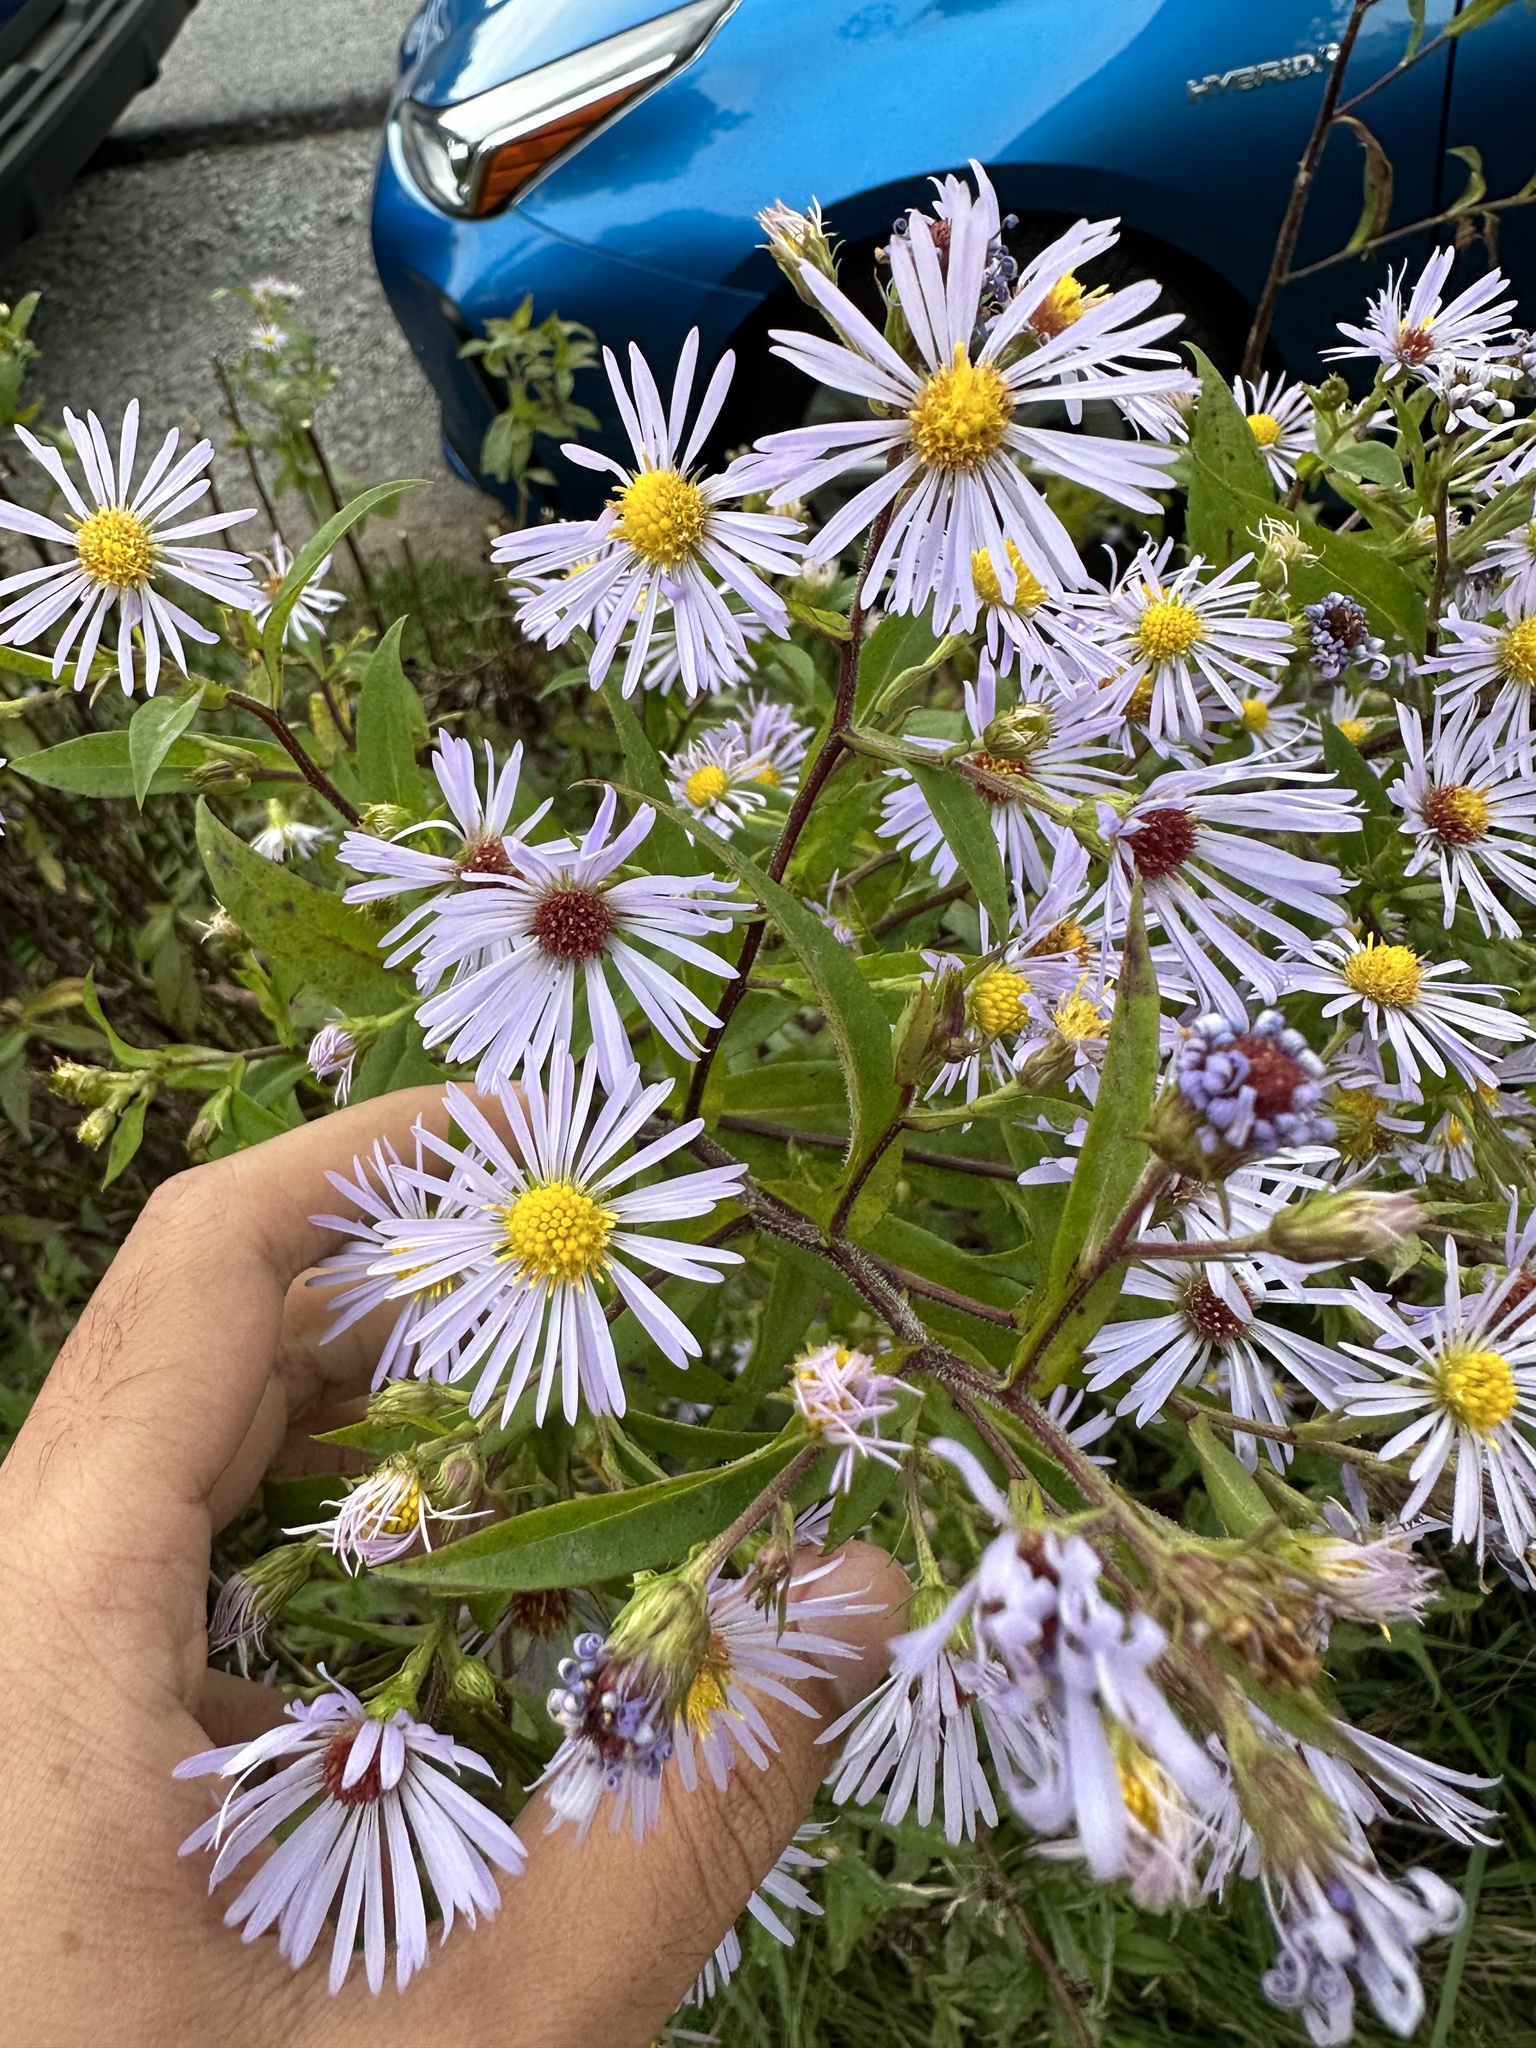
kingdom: Plantae
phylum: Tracheophyta
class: Magnoliopsida
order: Asterales
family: Asteraceae
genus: Symphyotrichum
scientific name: Symphyotrichum puniceum
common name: Bog aster
